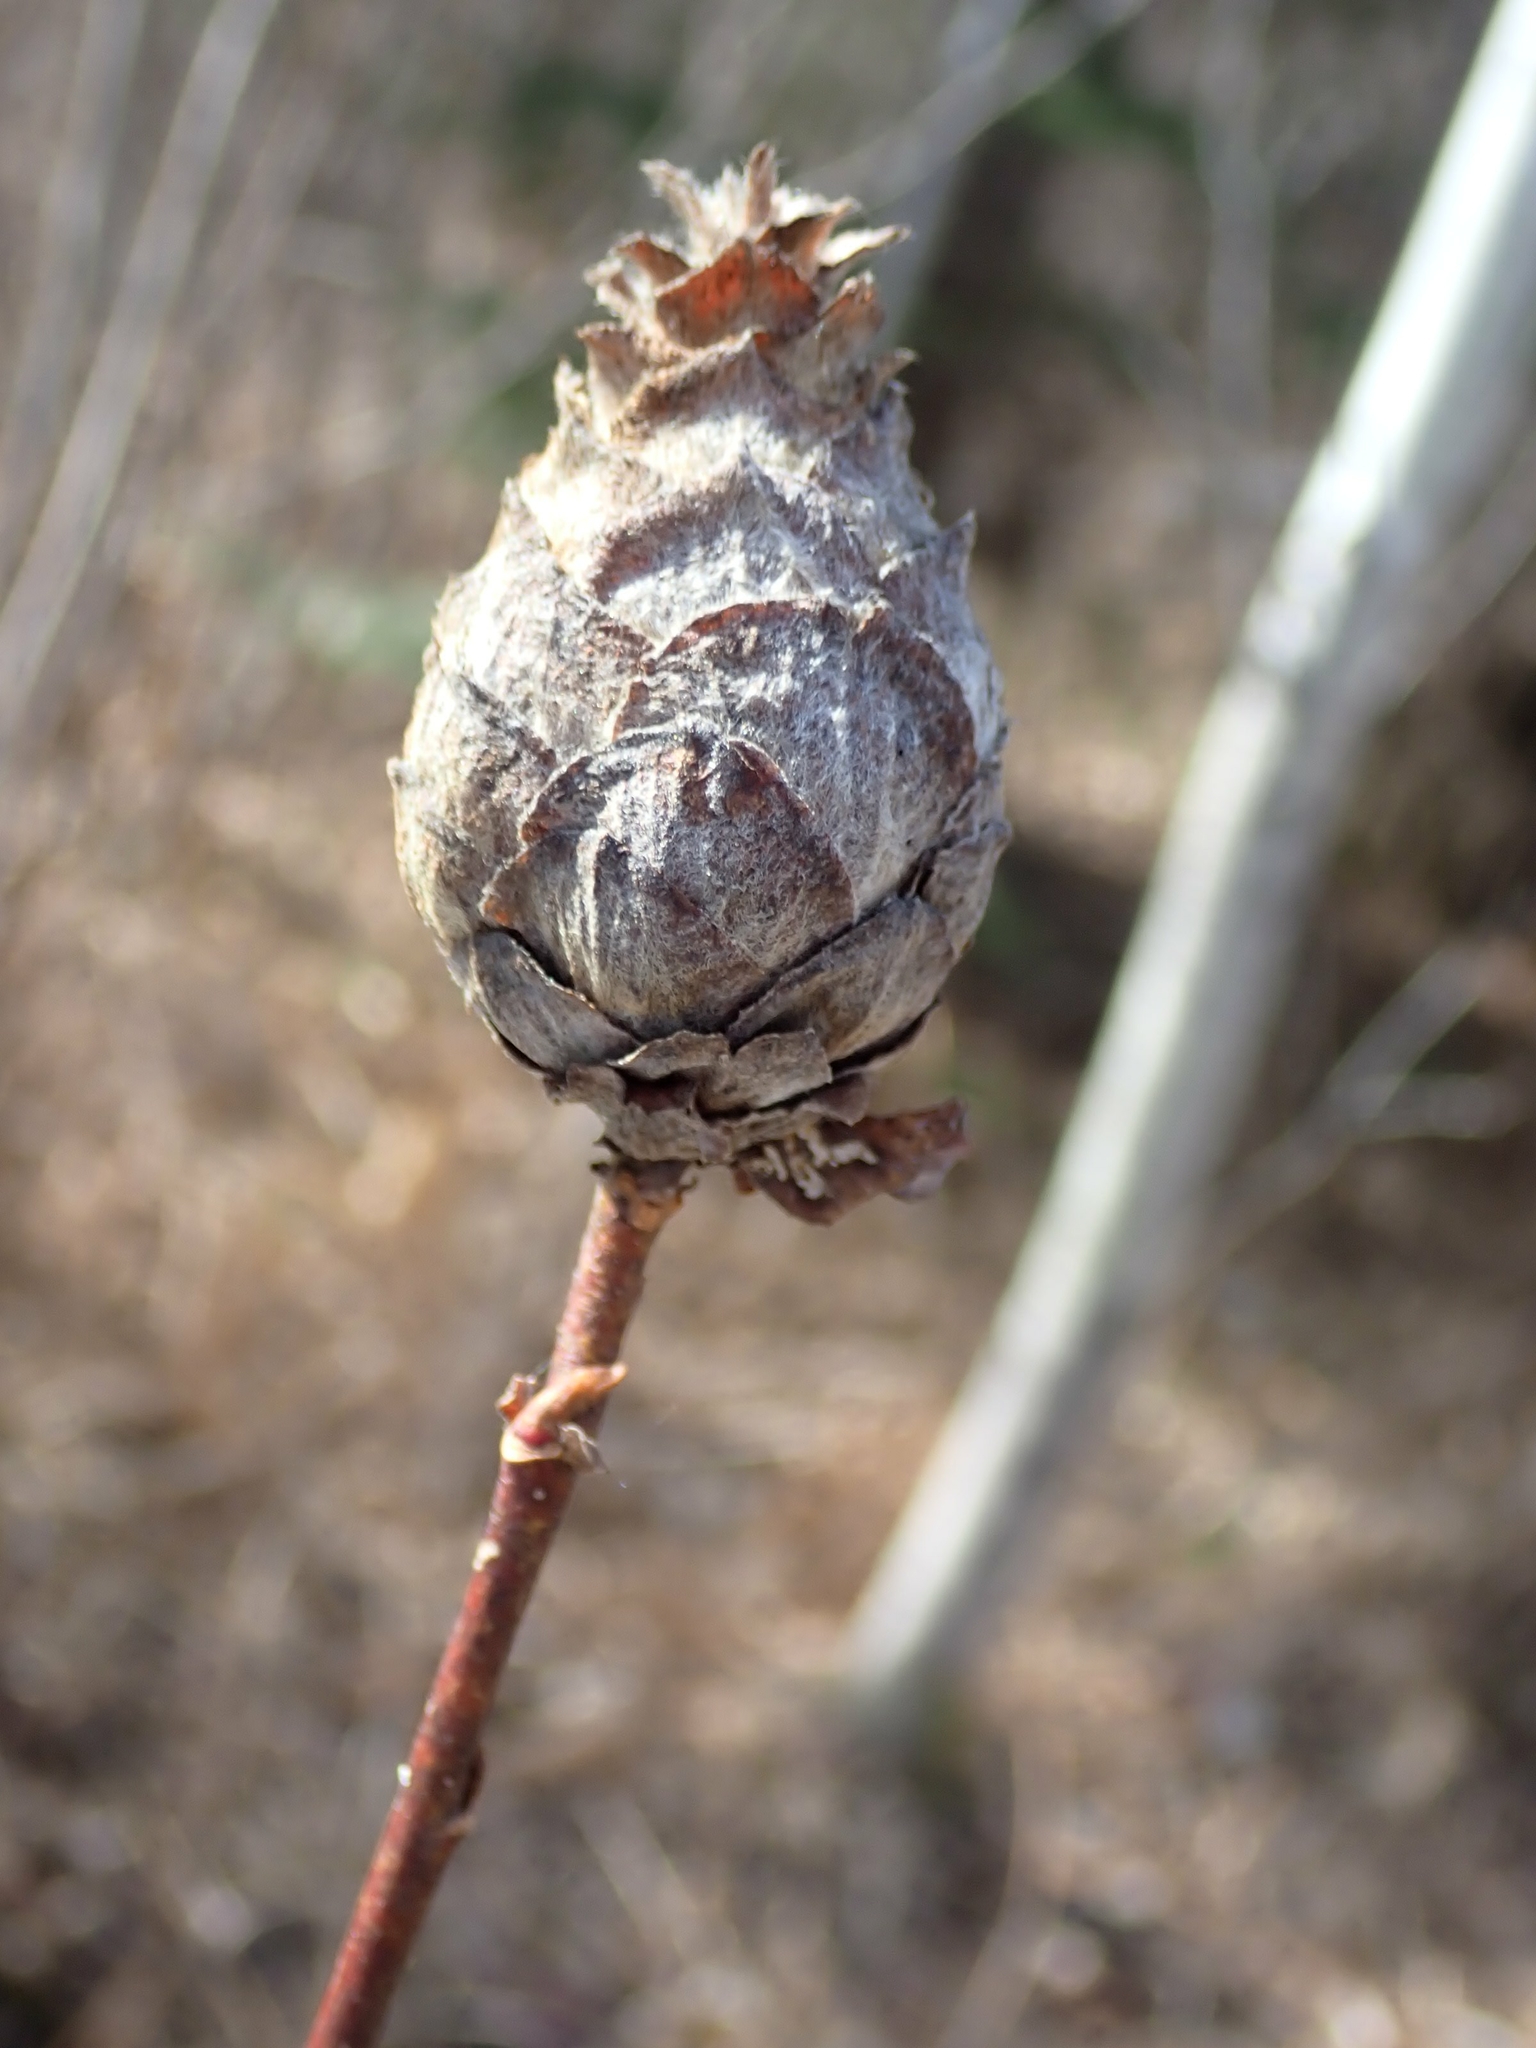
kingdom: Animalia
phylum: Arthropoda
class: Insecta
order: Diptera
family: Cecidomyiidae
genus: Rabdophaga
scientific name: Rabdophaga strobiloides
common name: Willow pinecone gall midge
